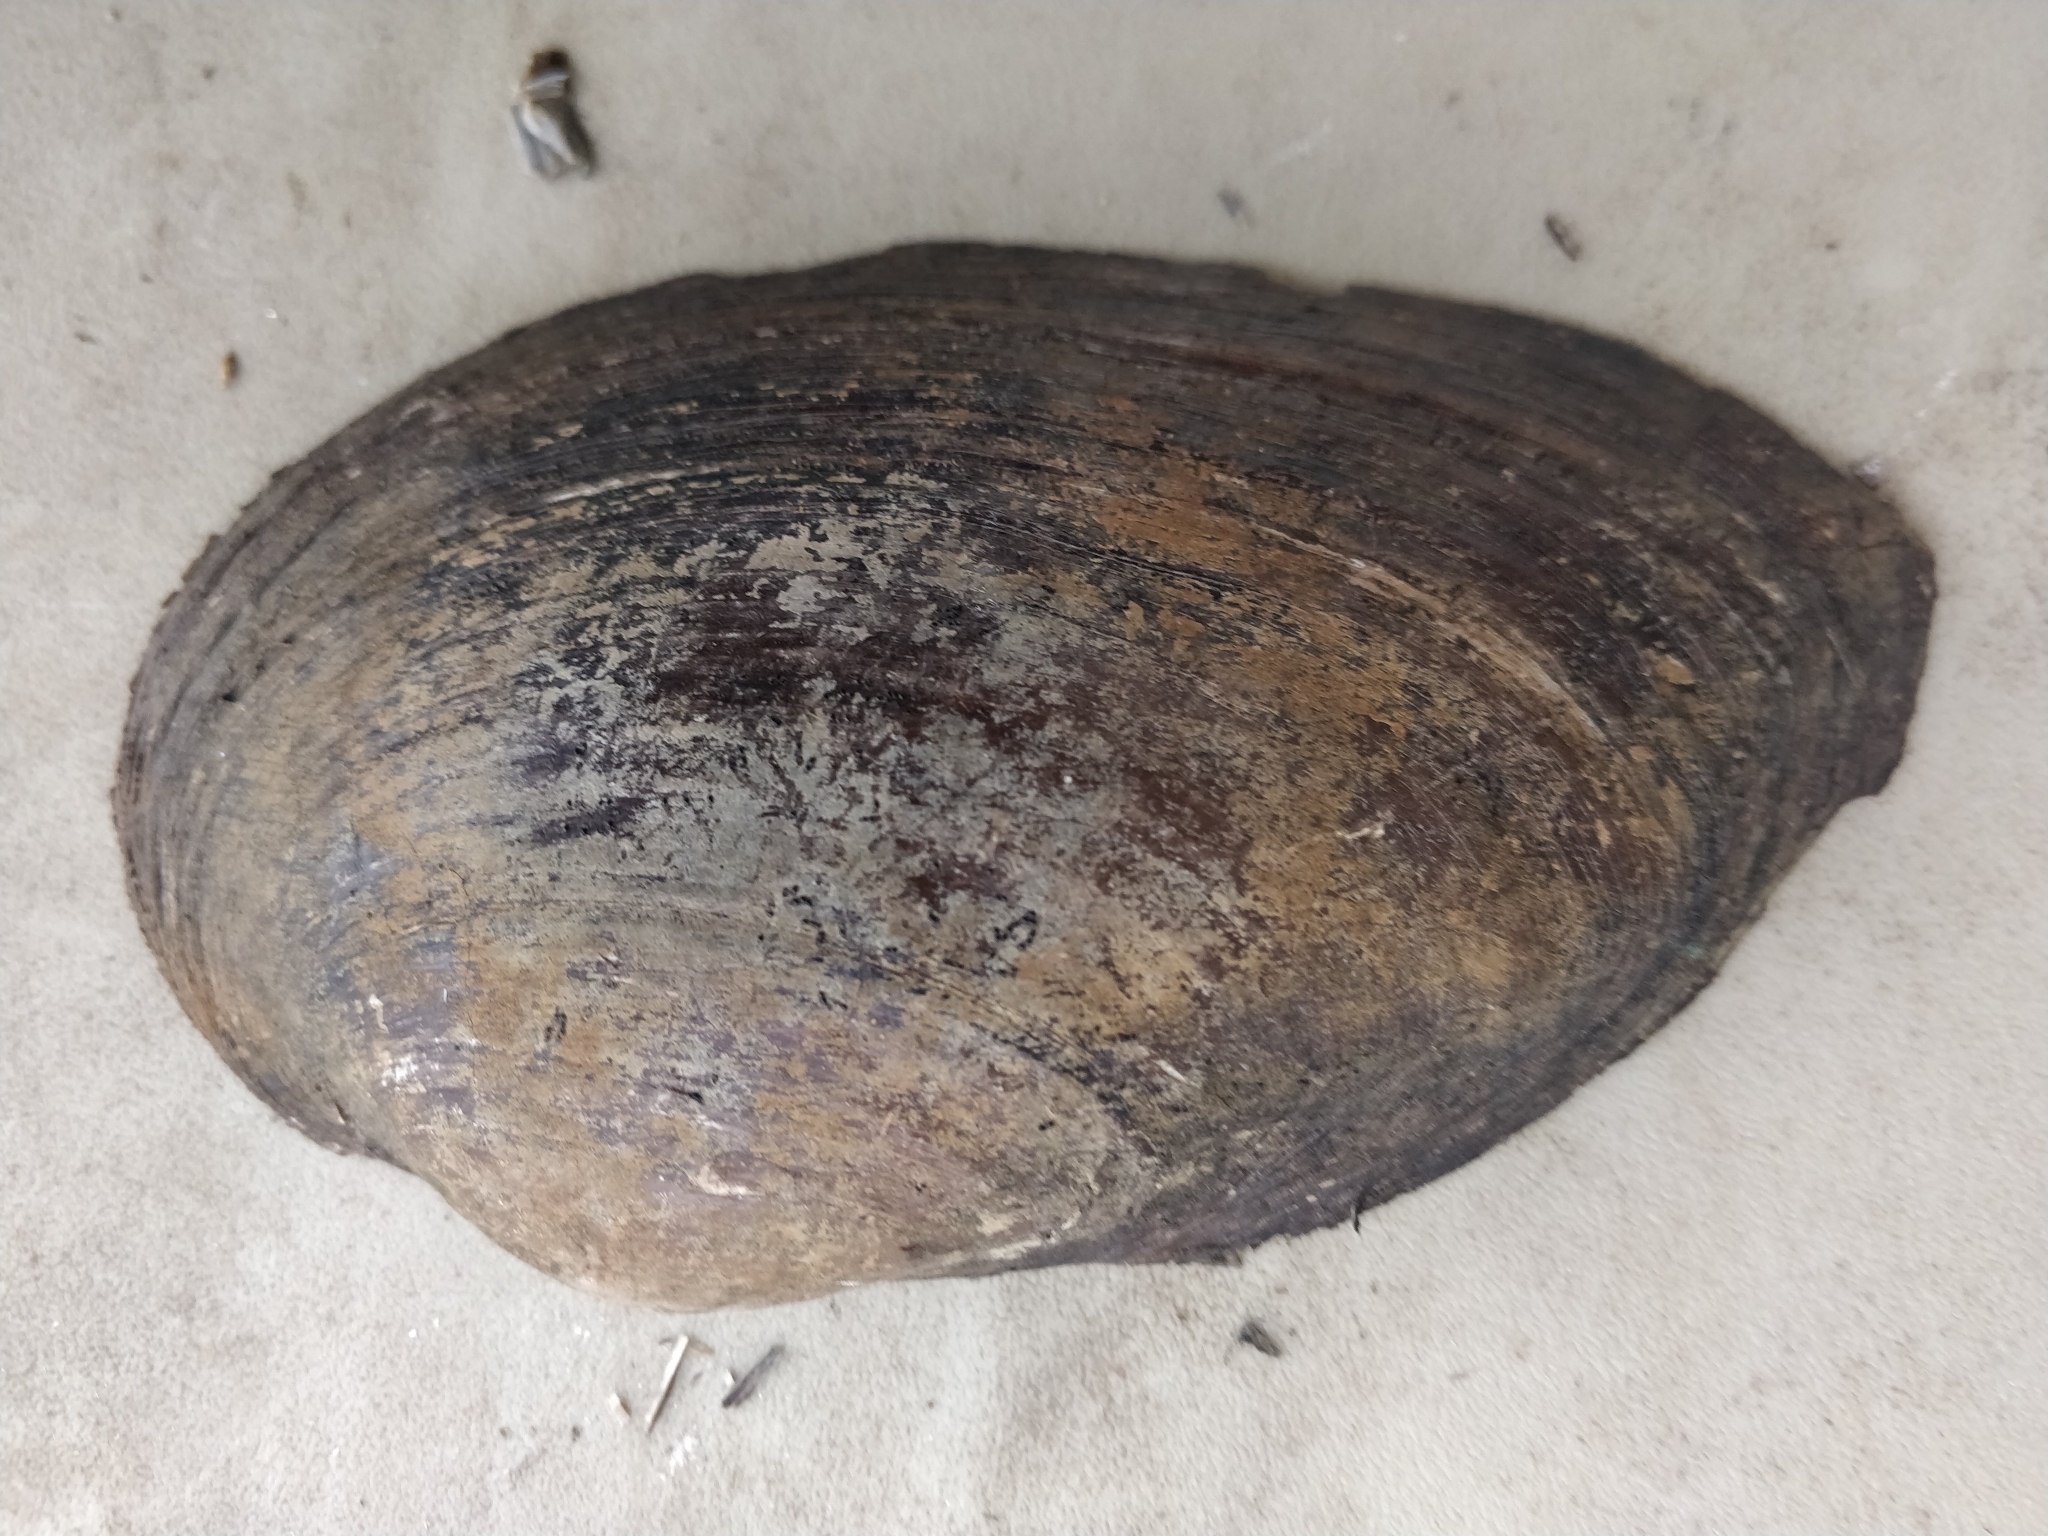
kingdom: Animalia
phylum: Mollusca
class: Bivalvia
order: Unionida
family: Unionidae
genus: Pyganodon
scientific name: Pyganodon grandis
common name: Giant floater
